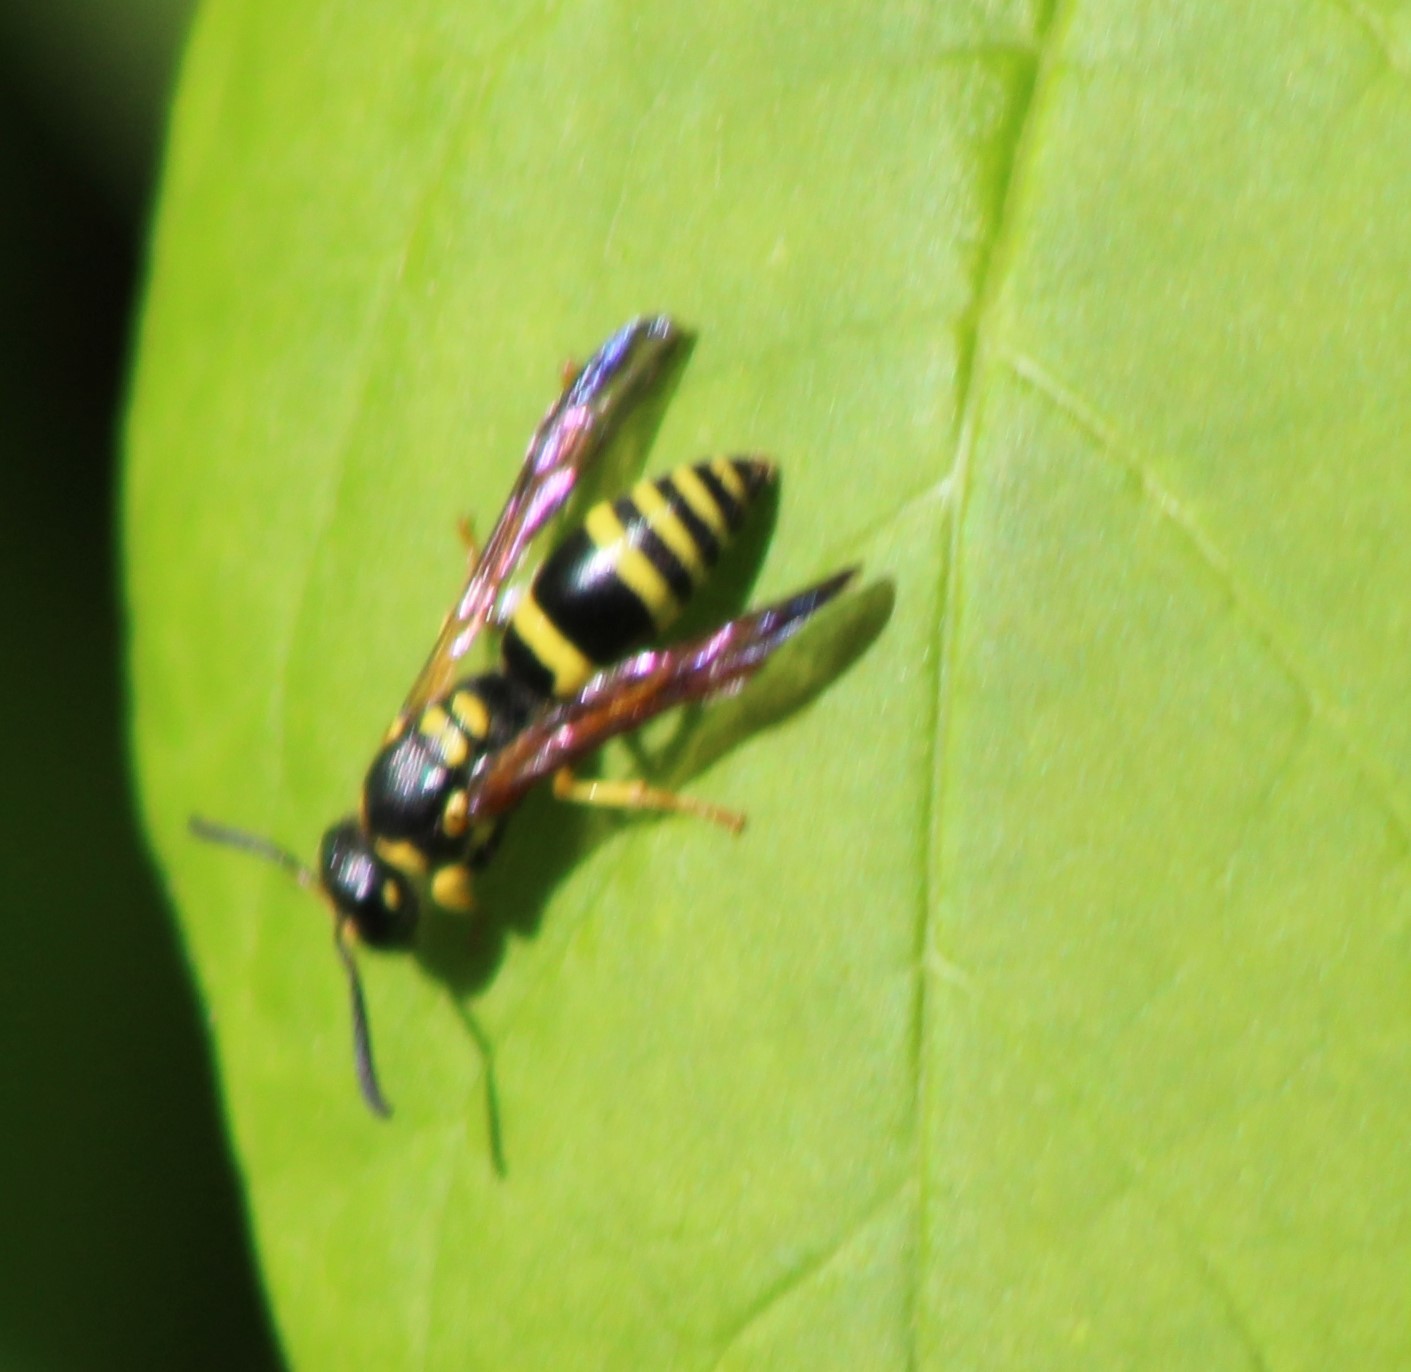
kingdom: Animalia
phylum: Arthropoda
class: Insecta
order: Hymenoptera
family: Vespidae
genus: Ancistrocerus
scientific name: Ancistrocerus adiabatus
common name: Bramble mason wasp
